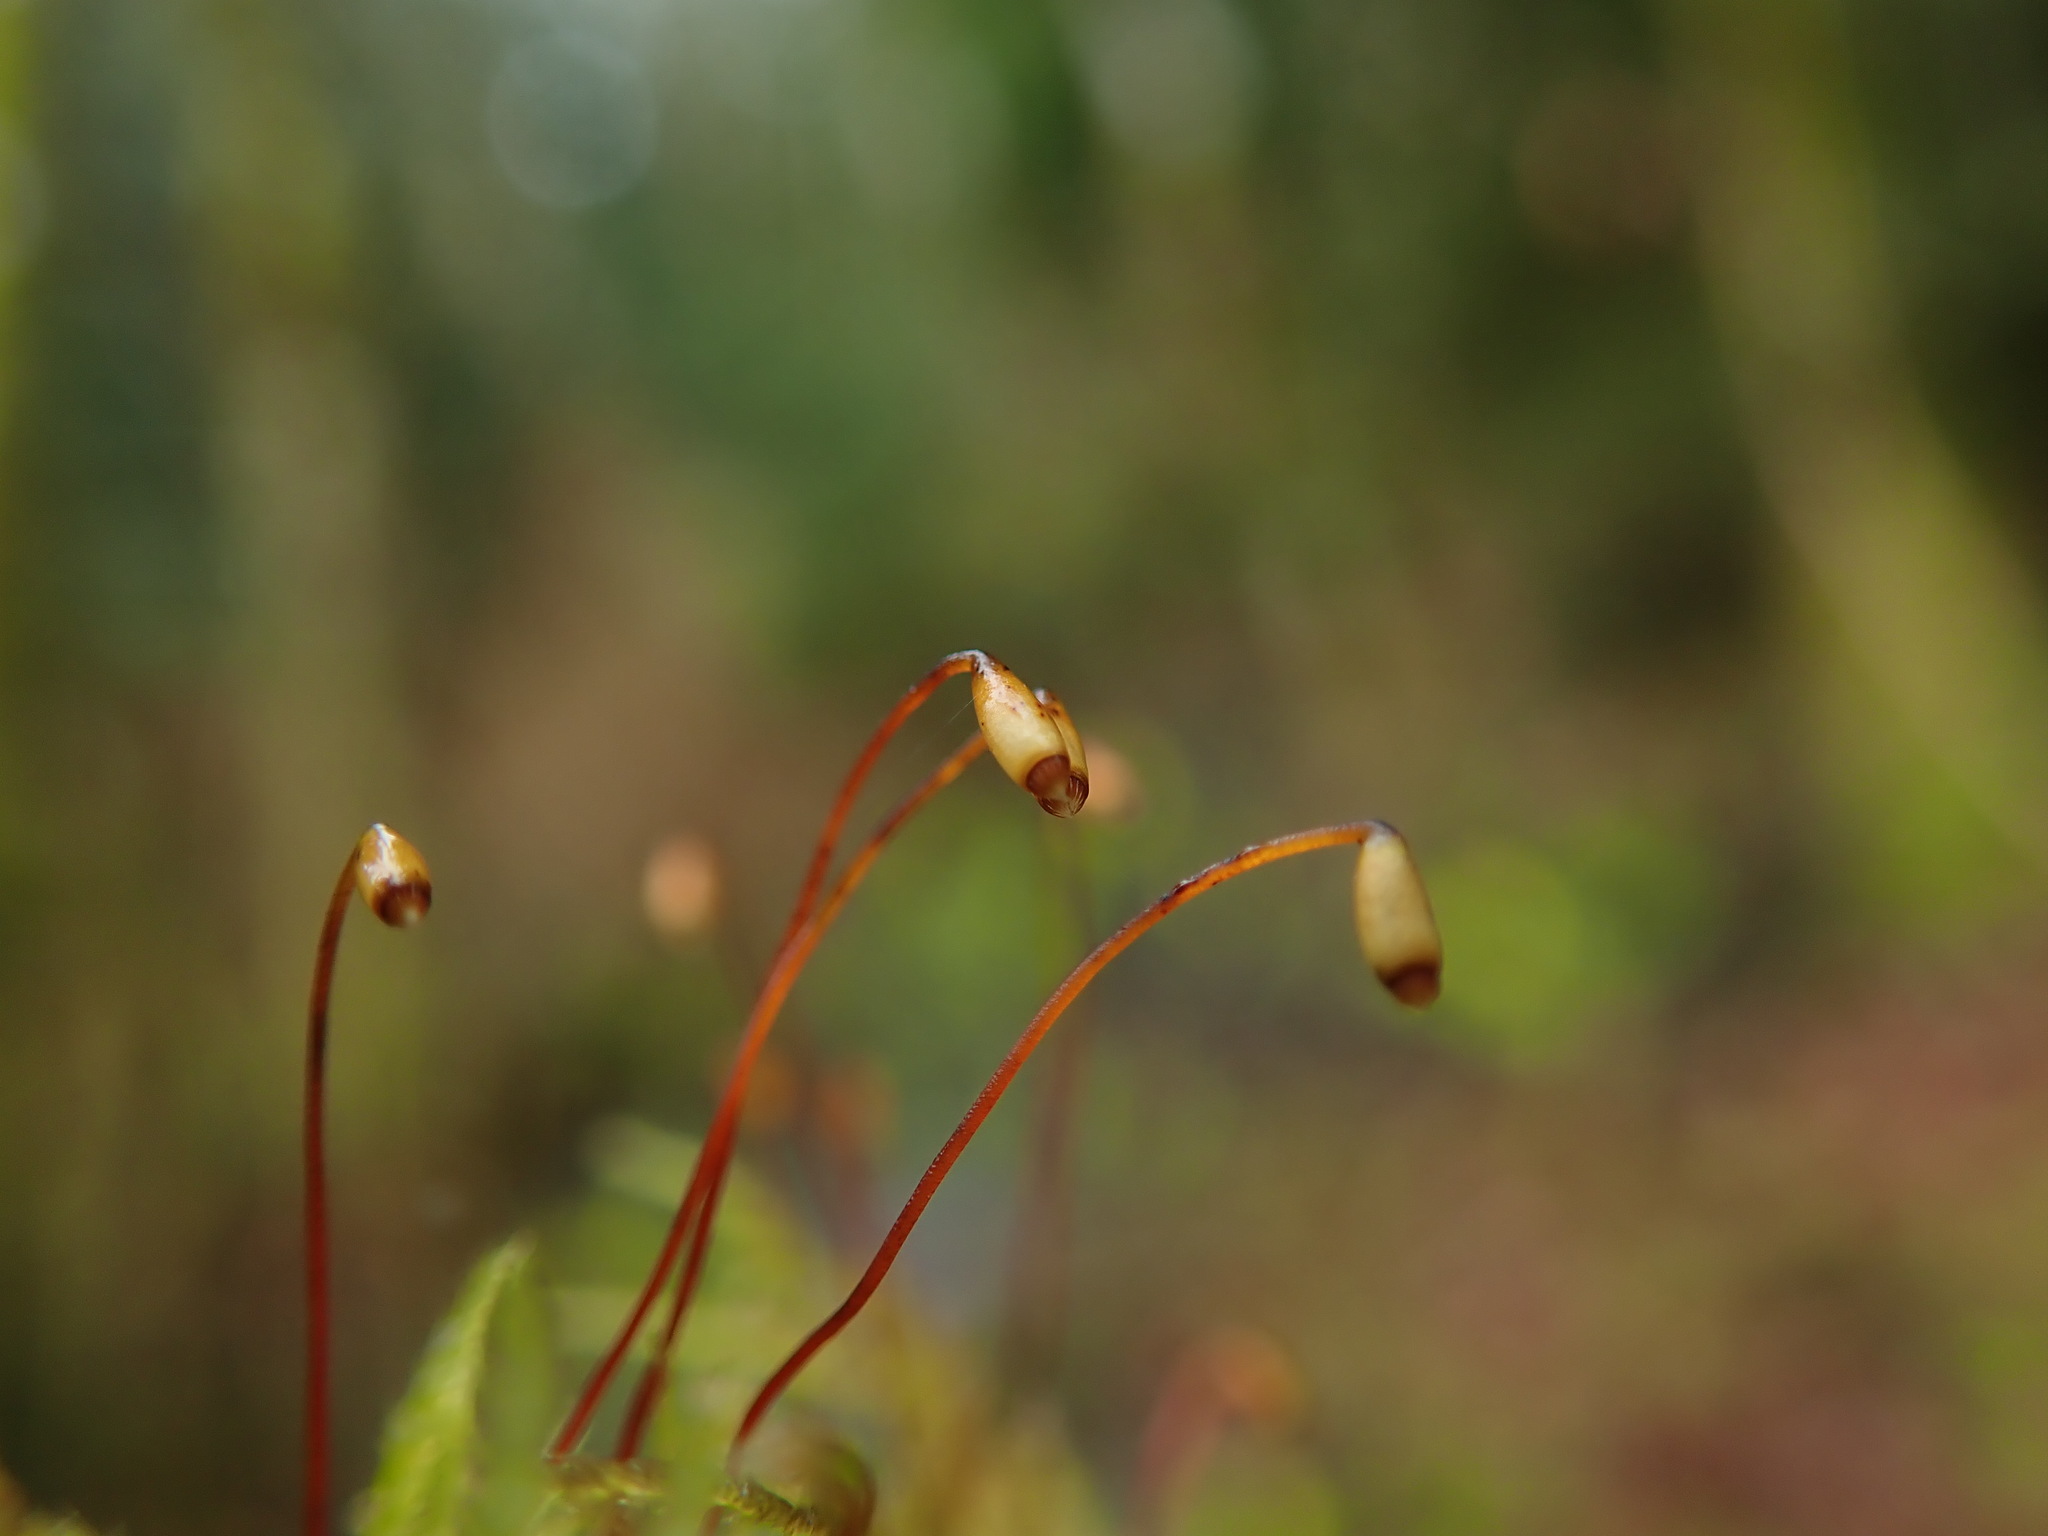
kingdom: Plantae
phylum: Bryophyta
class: Bryopsida
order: Hypnales
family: Brachytheciaceae
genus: Kindbergia
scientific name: Kindbergia praelonga
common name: Slender beaked moss
